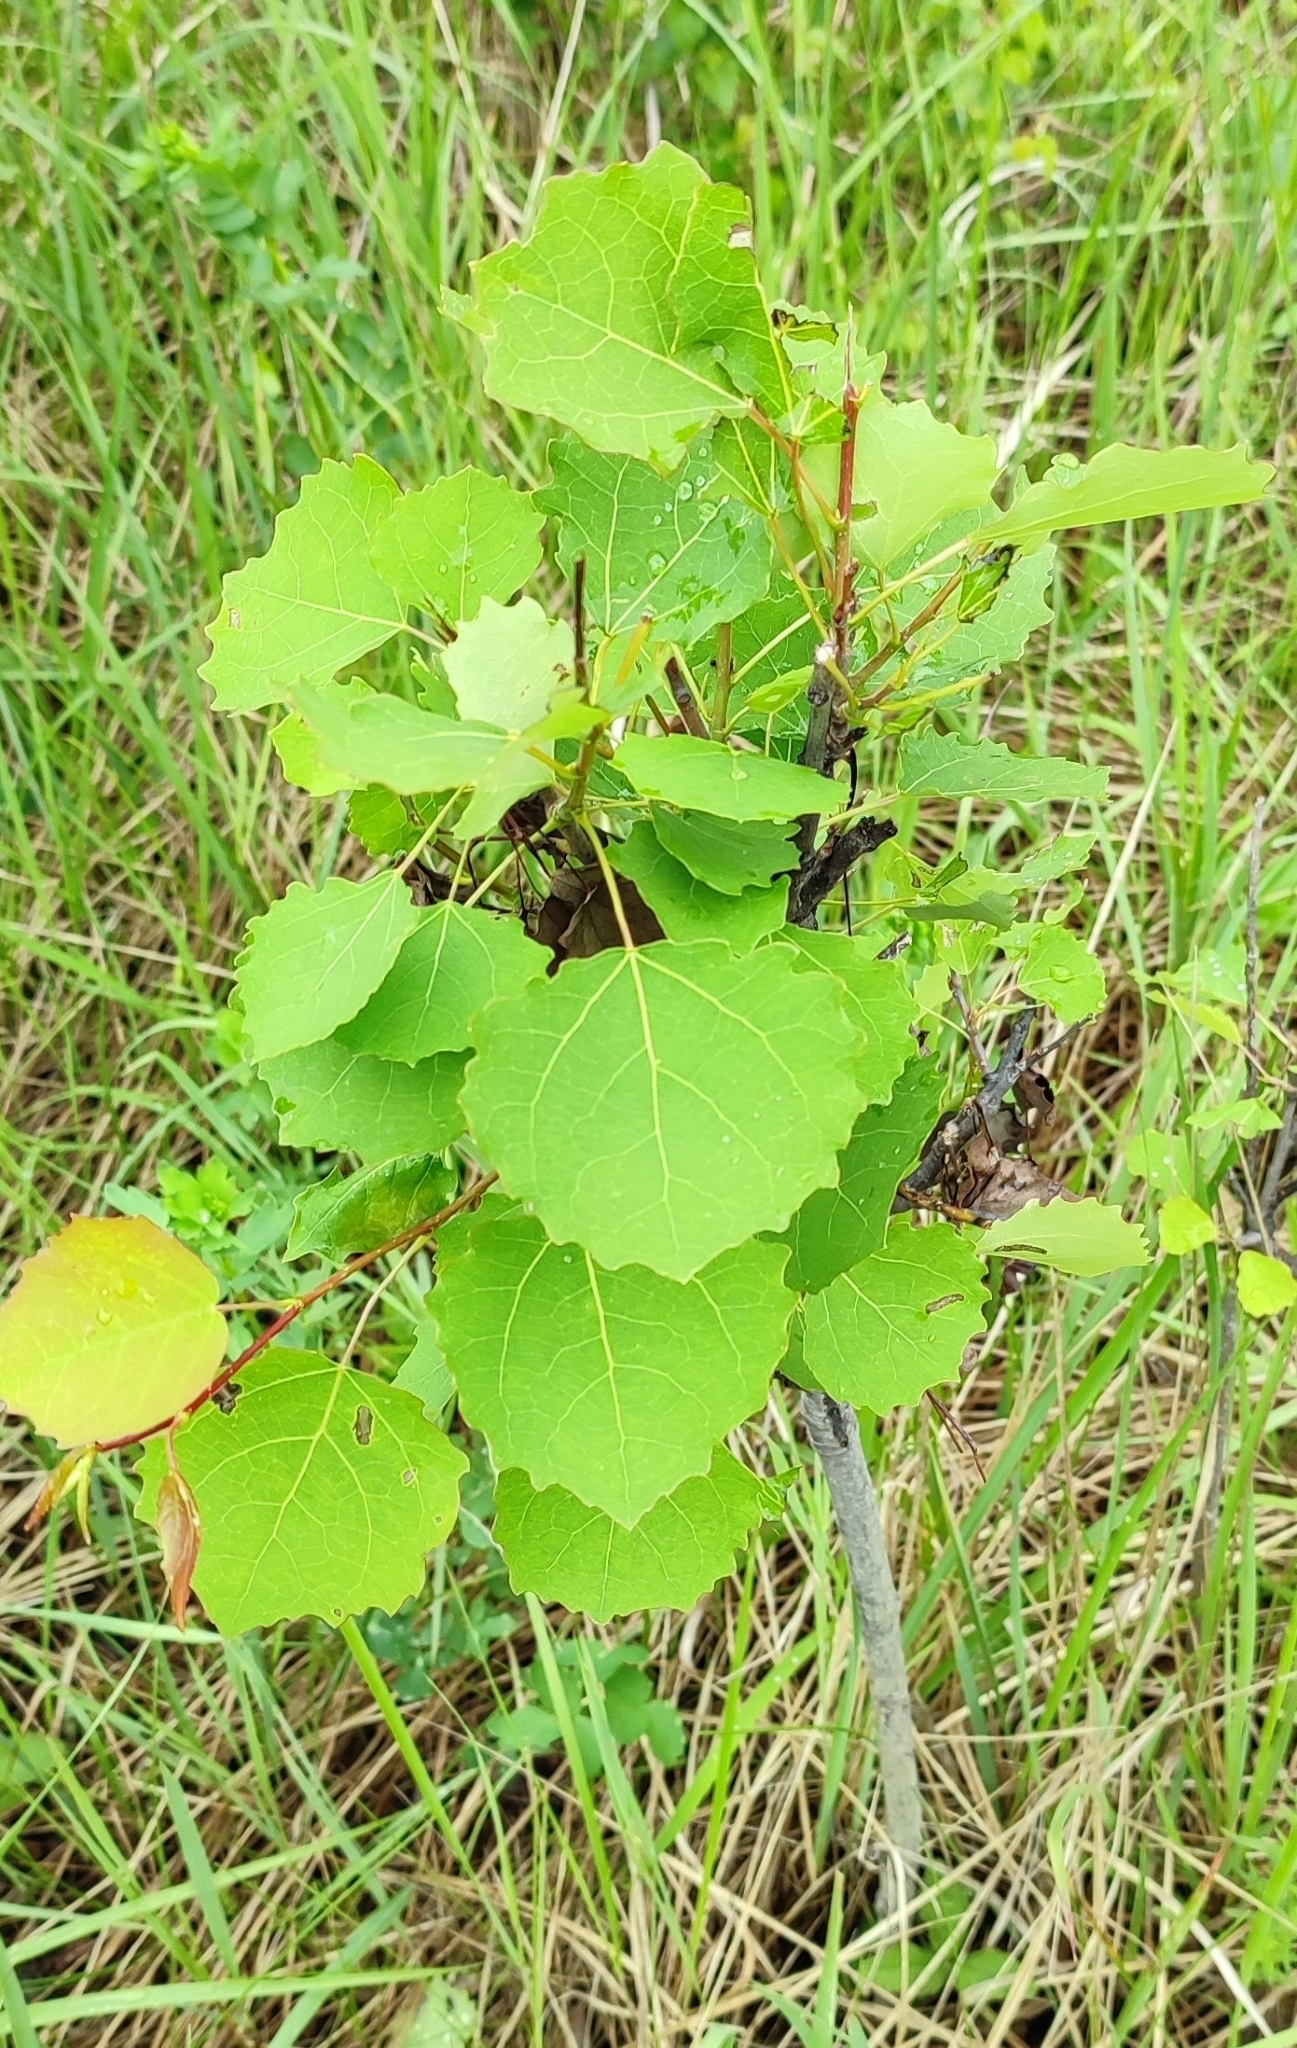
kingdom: Plantae
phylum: Tracheophyta
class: Magnoliopsida
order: Malpighiales
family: Salicaceae
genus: Populus
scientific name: Populus tremula
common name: European aspen
